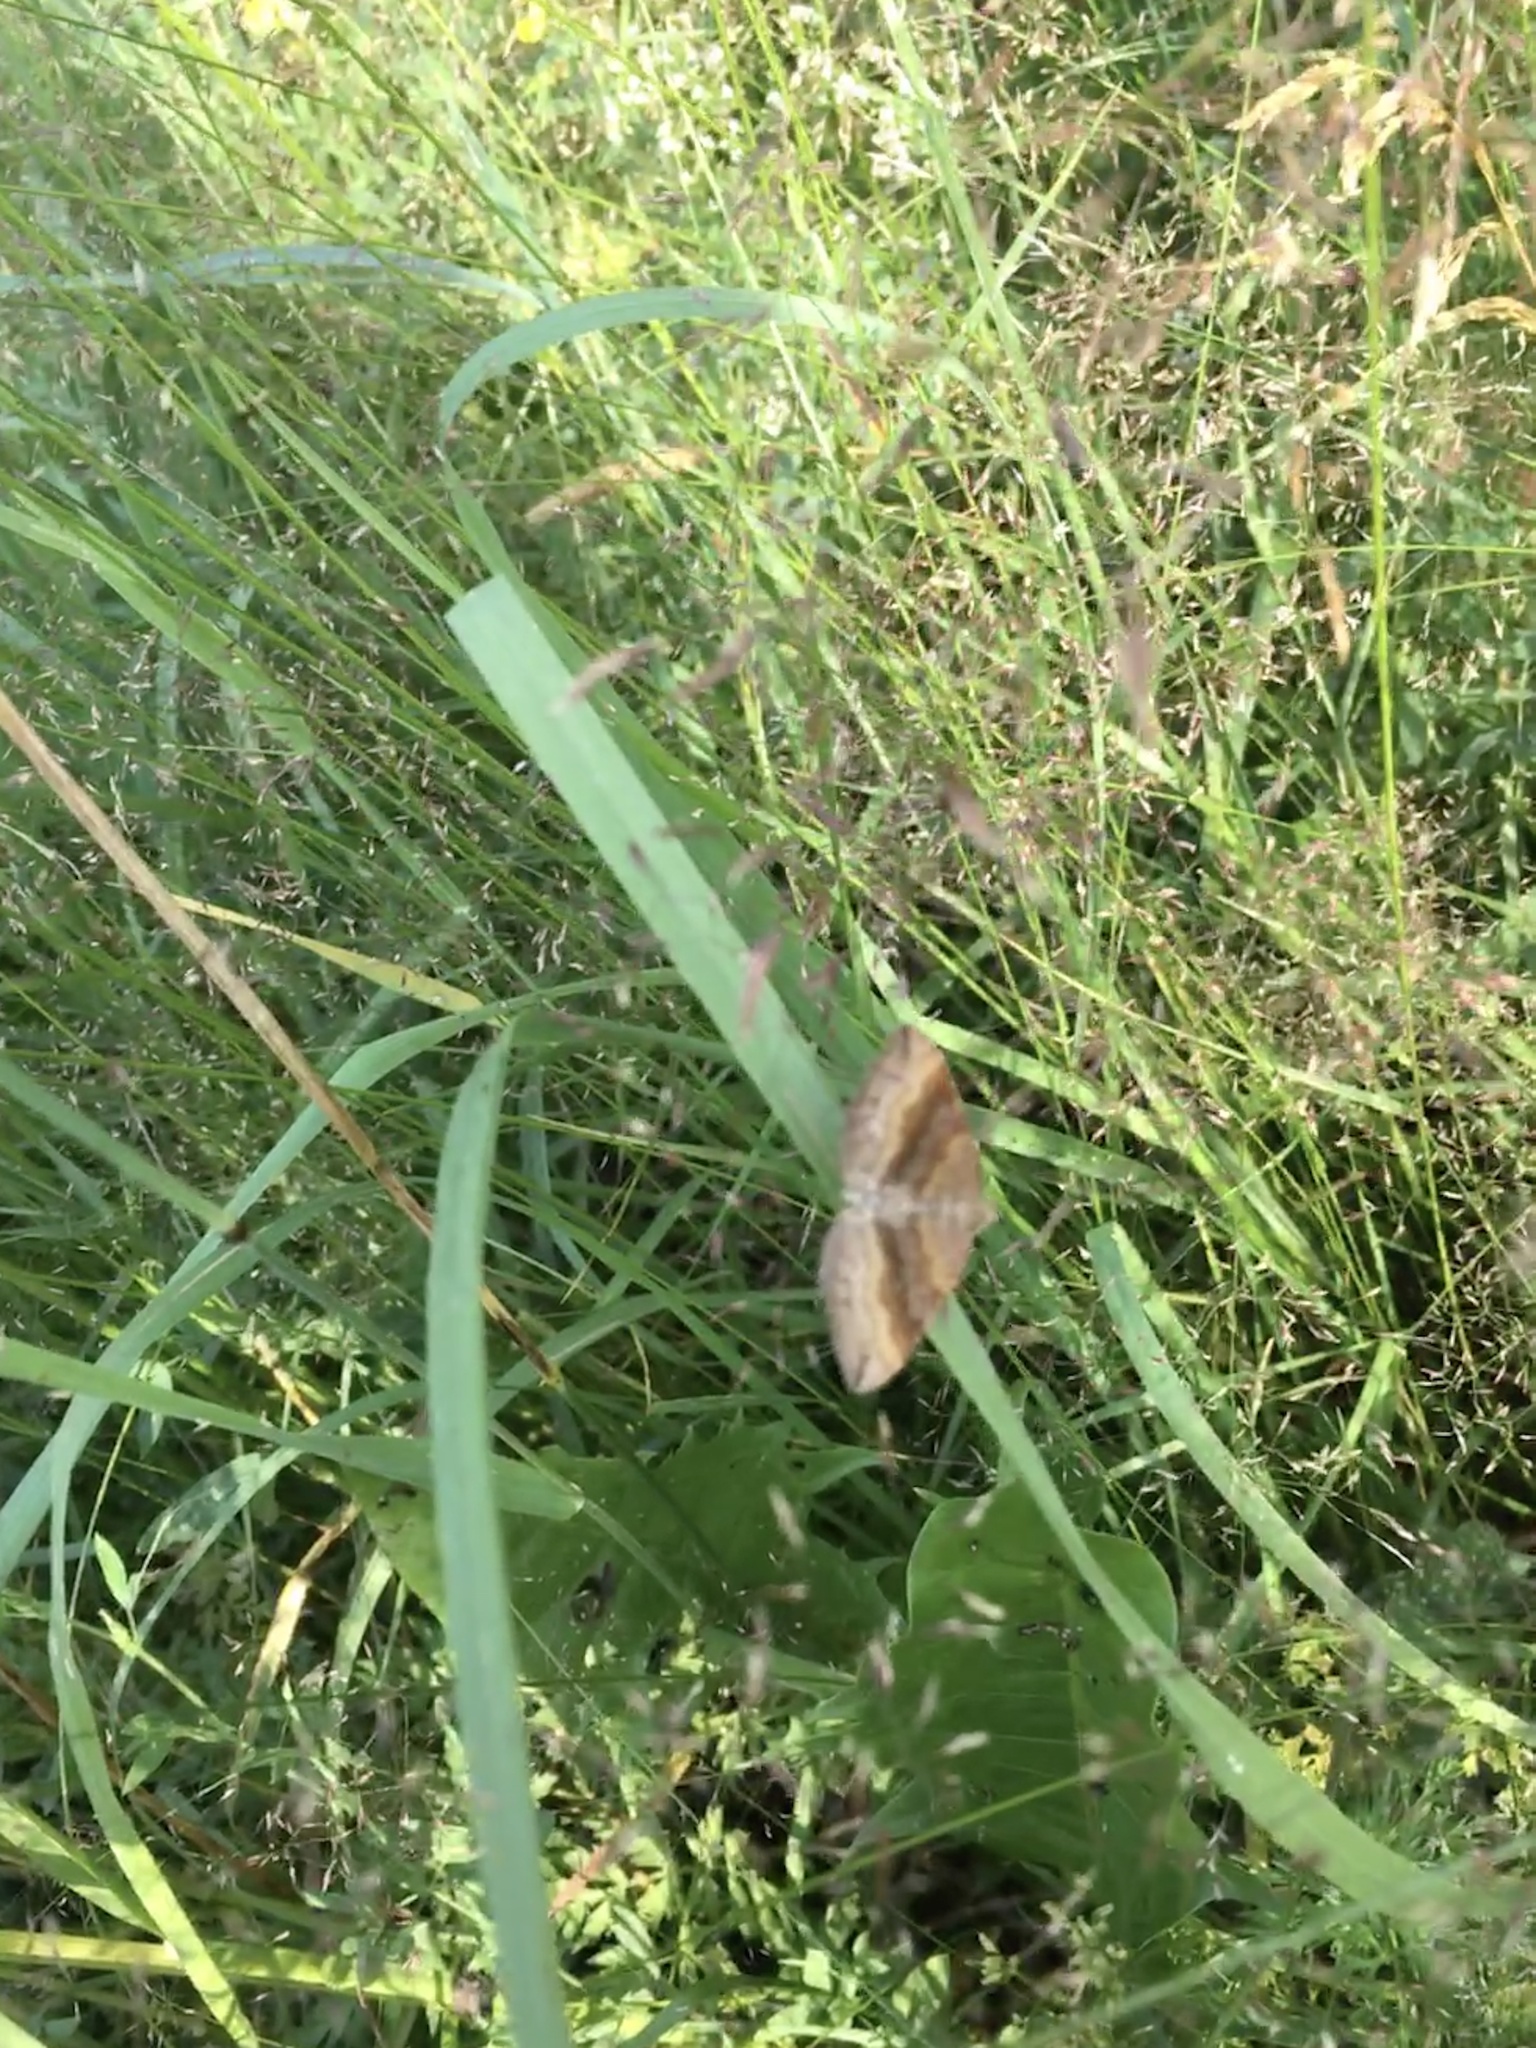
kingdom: Animalia
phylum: Arthropoda
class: Insecta
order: Lepidoptera
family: Geometridae
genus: Scotopteryx
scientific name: Scotopteryx chenopodiata
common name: Shaded broad-bar
